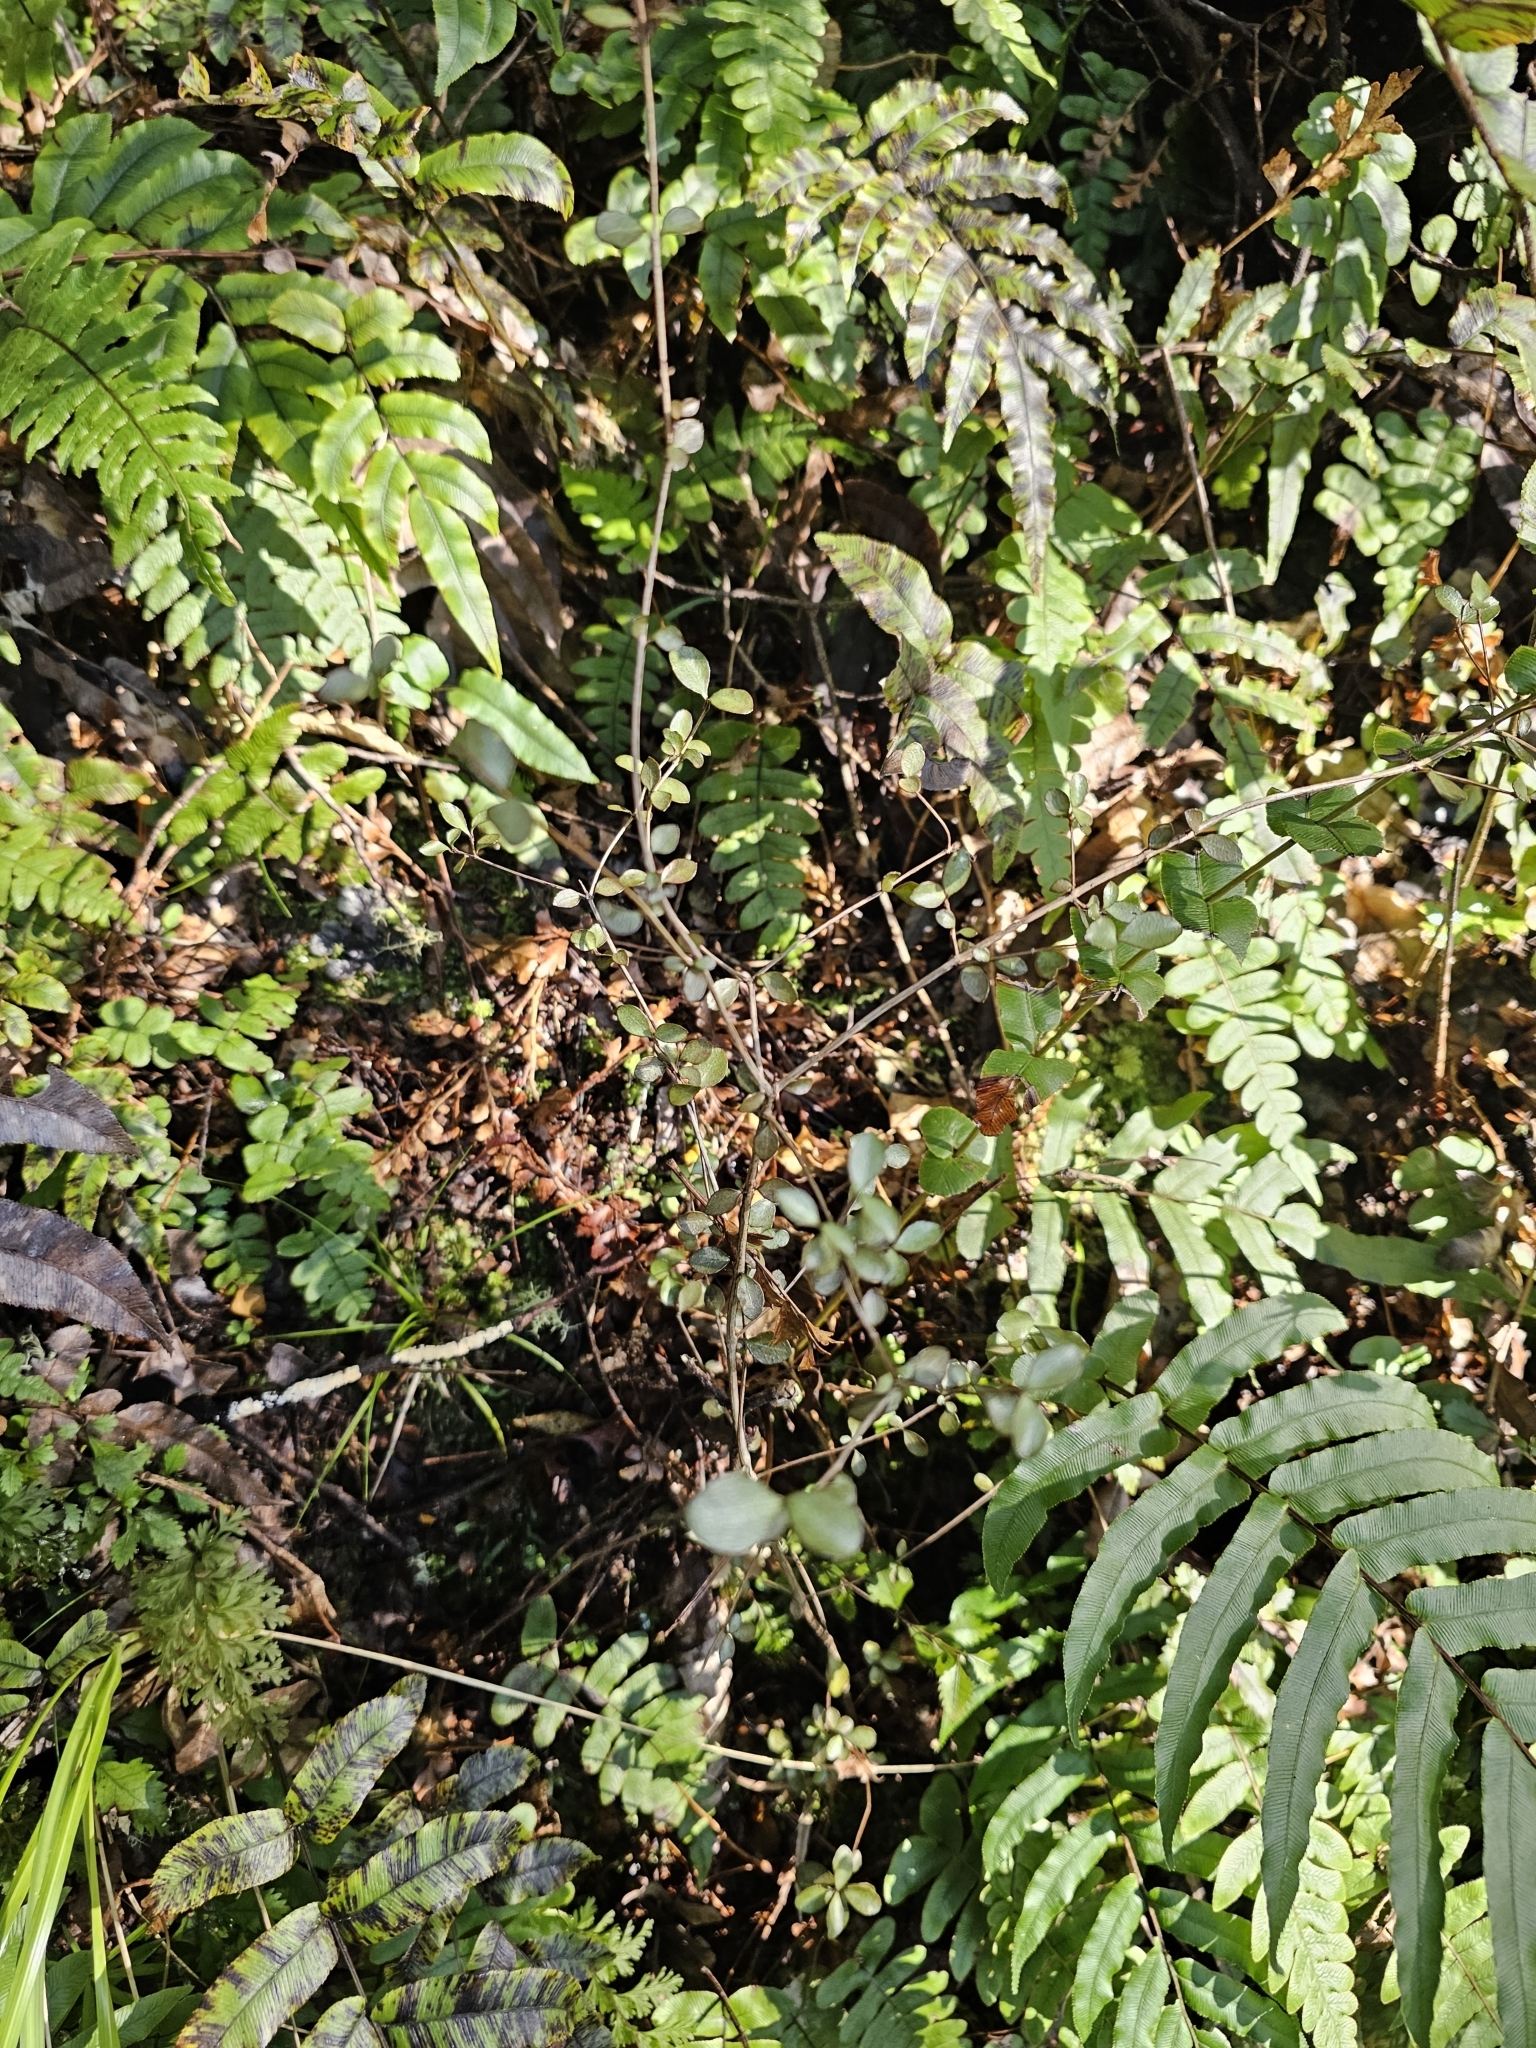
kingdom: Plantae
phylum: Tracheophyta
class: Magnoliopsida
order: Myrtales
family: Myrtaceae
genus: Neomyrtus
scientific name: Neomyrtus pedunculata
